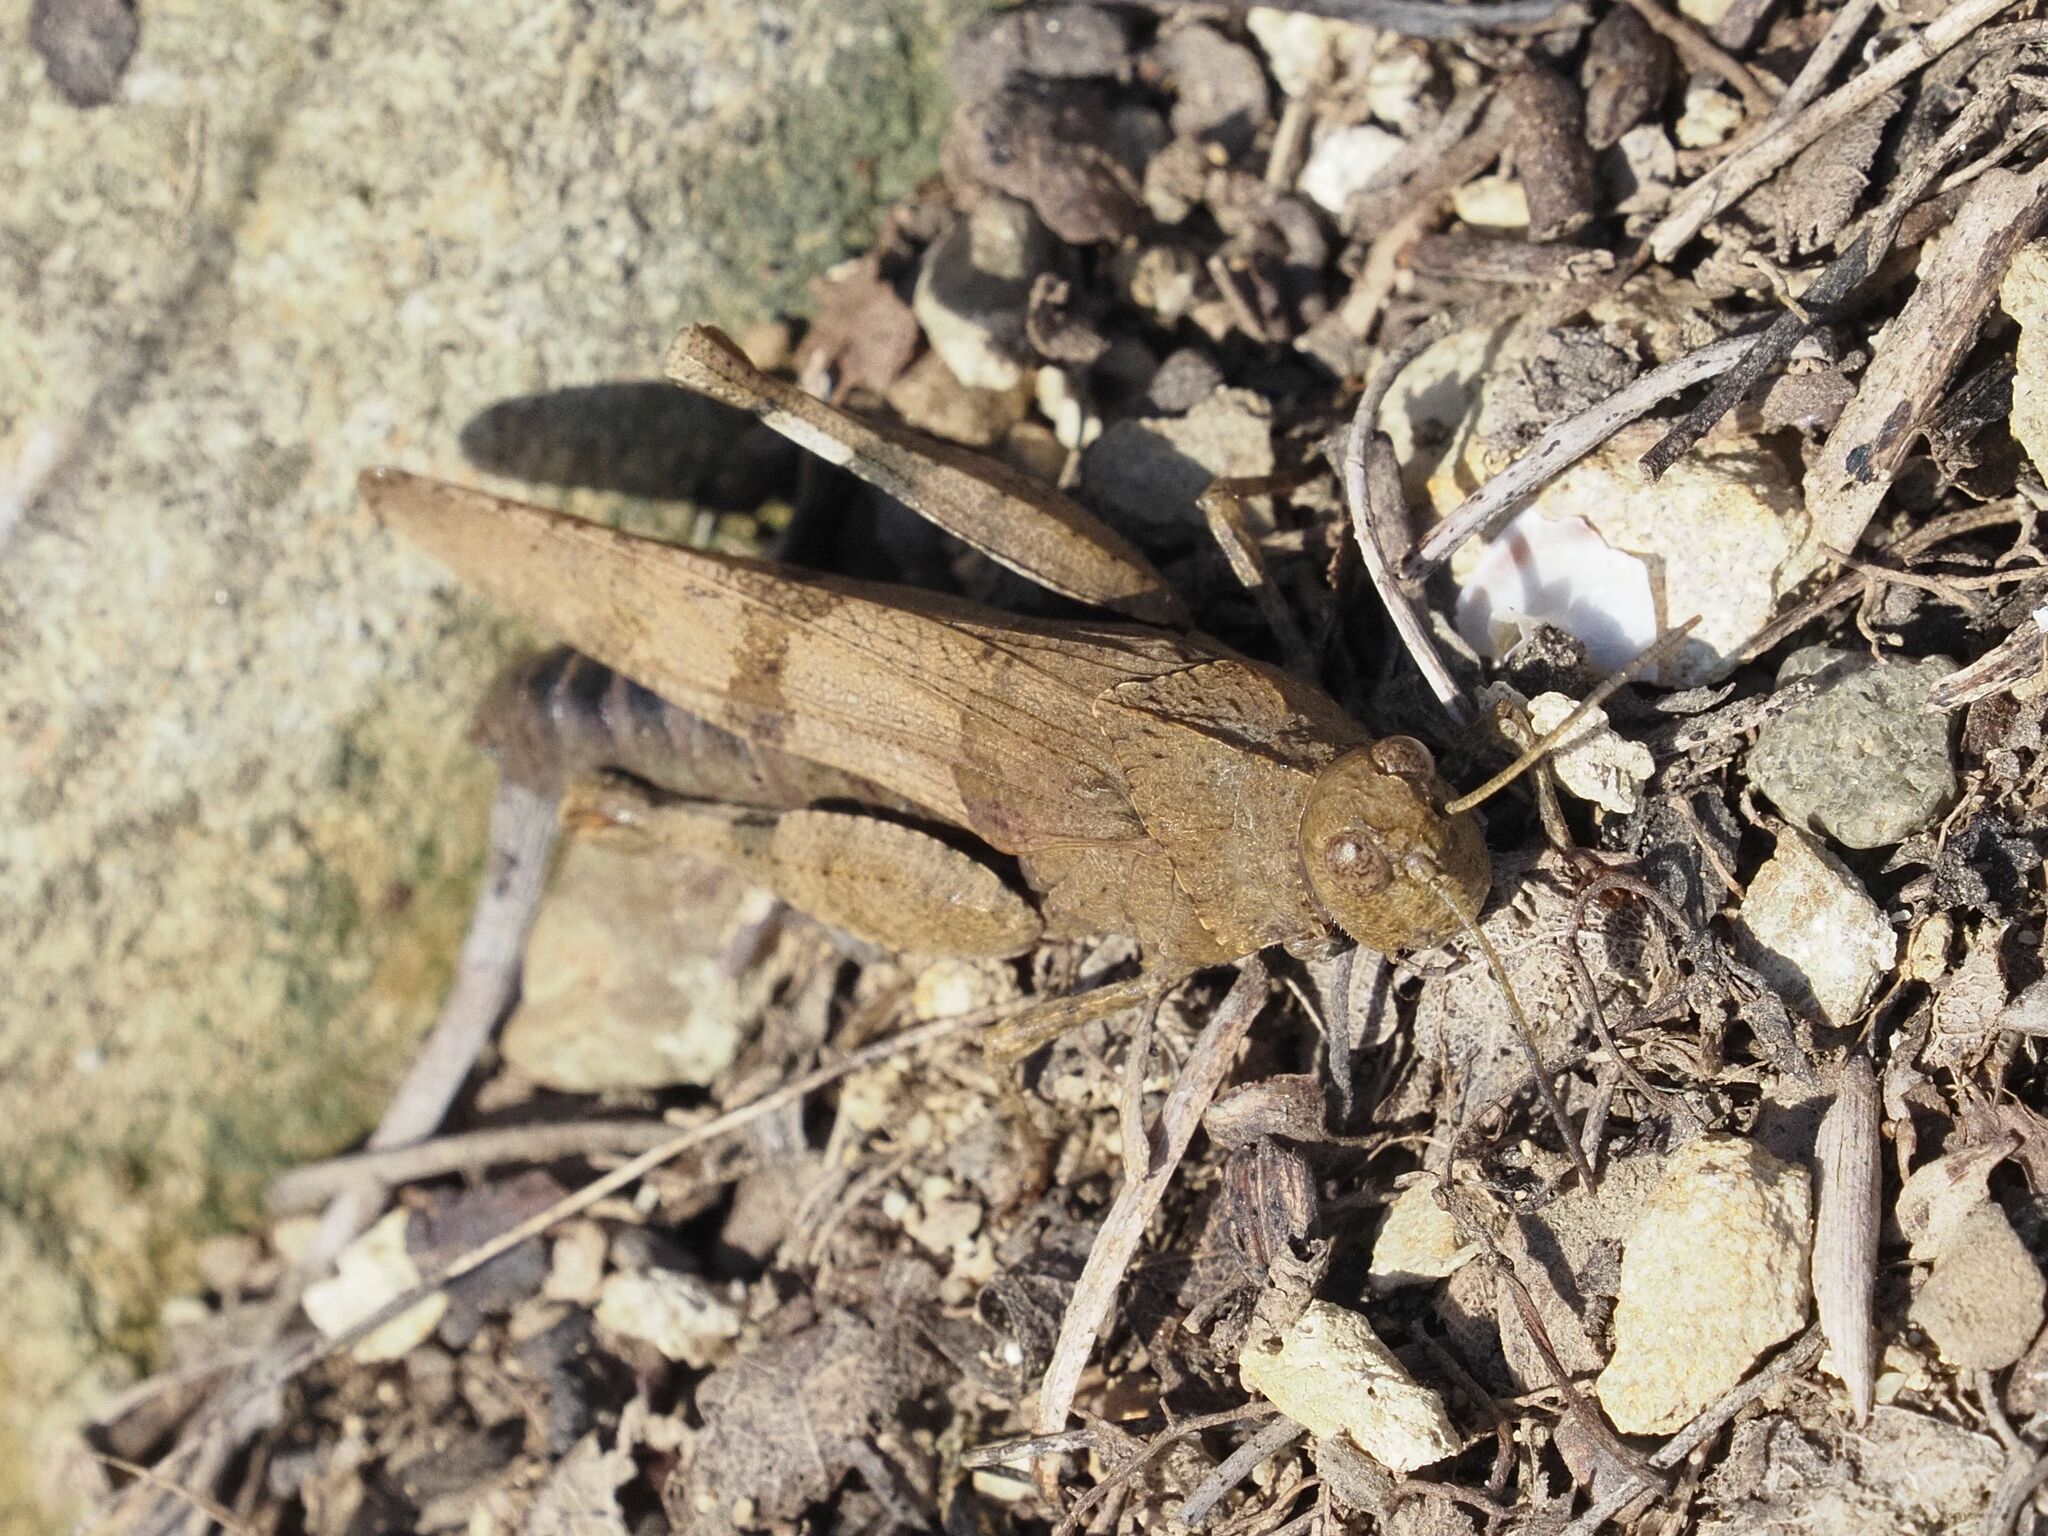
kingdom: Animalia
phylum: Arthropoda
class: Insecta
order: Orthoptera
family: Acrididae
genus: Oedipoda
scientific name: Oedipoda caerulescens
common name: Blue-winged grasshopper
